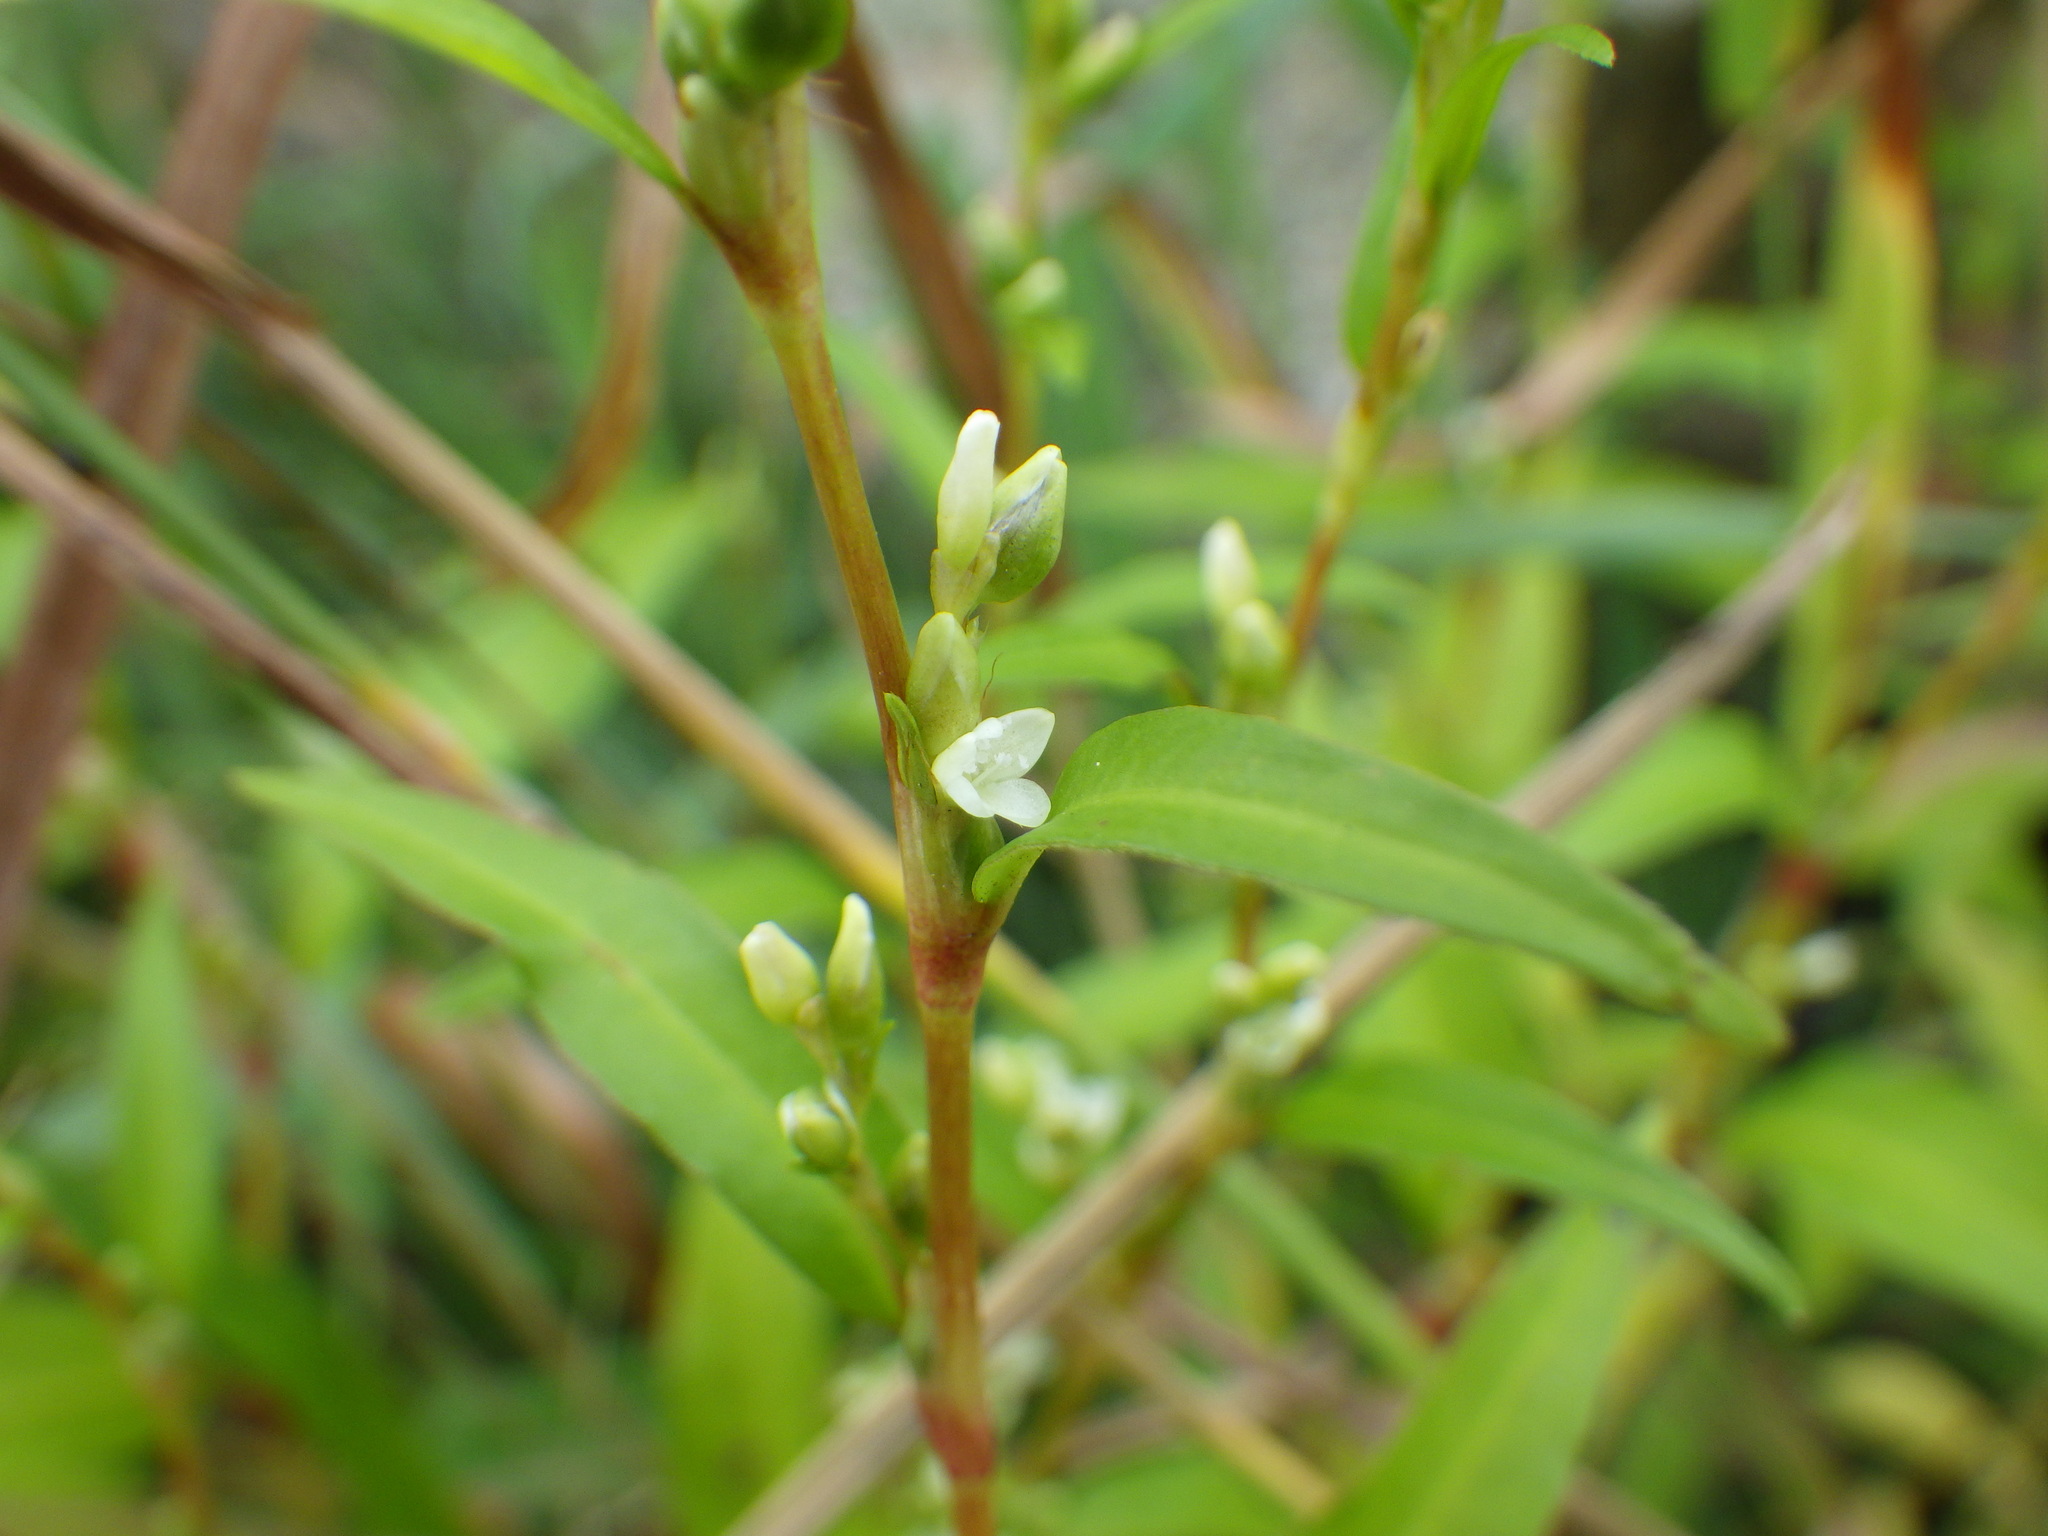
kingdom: Plantae
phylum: Tracheophyta
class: Magnoliopsida
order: Caryophyllales
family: Polygonaceae
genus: Persicaria
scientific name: Persicaria hydropiper
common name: Water-pepper
